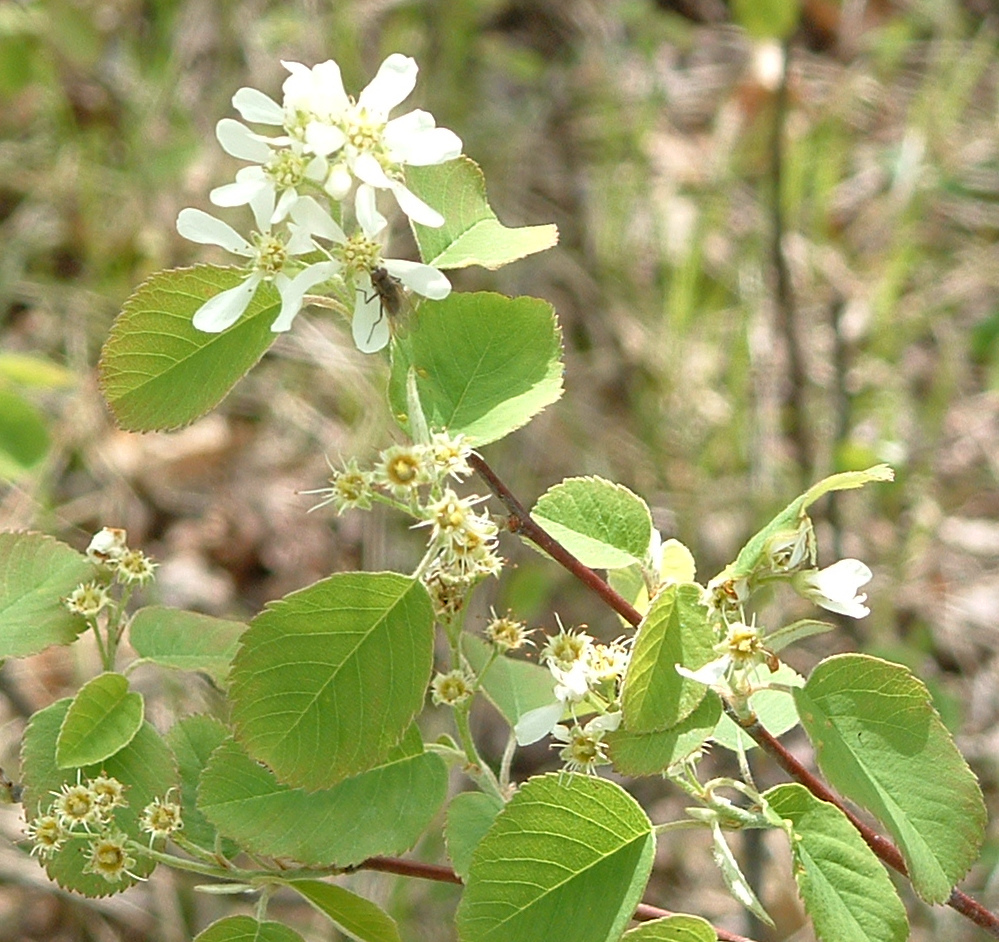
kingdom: Plantae
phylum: Tracheophyta
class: Magnoliopsida
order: Rosales
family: Rosaceae
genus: Amelanchier
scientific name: Amelanchier alnifolia
